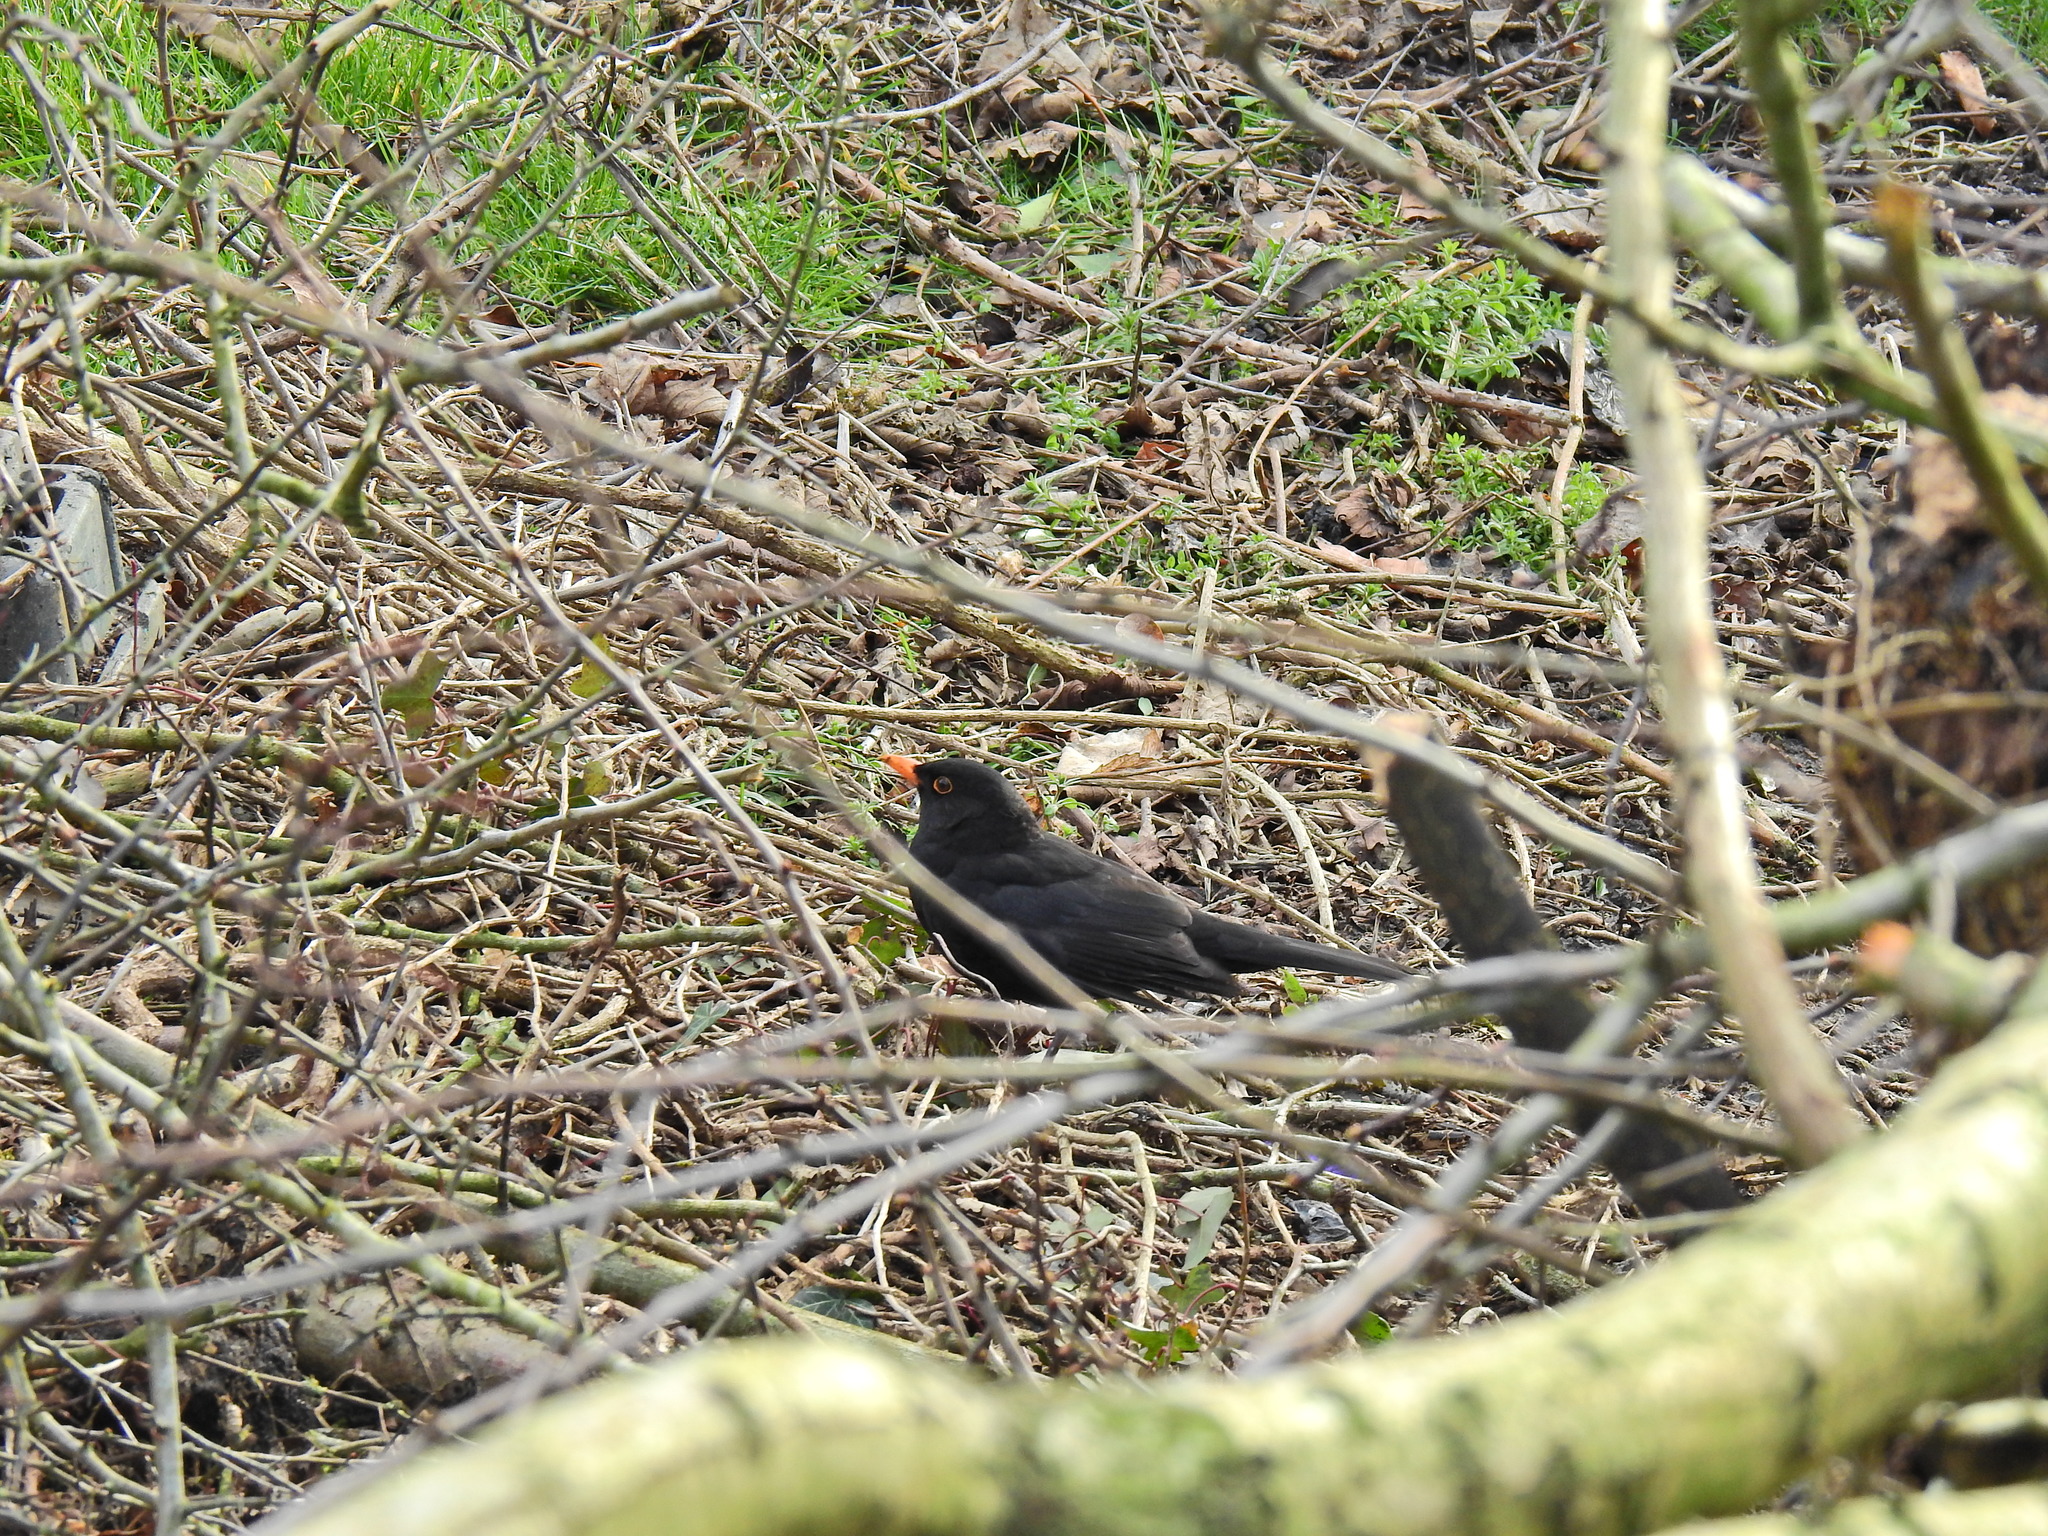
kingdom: Animalia
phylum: Chordata
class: Aves
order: Passeriformes
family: Turdidae
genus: Turdus
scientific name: Turdus merula
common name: Common blackbird
